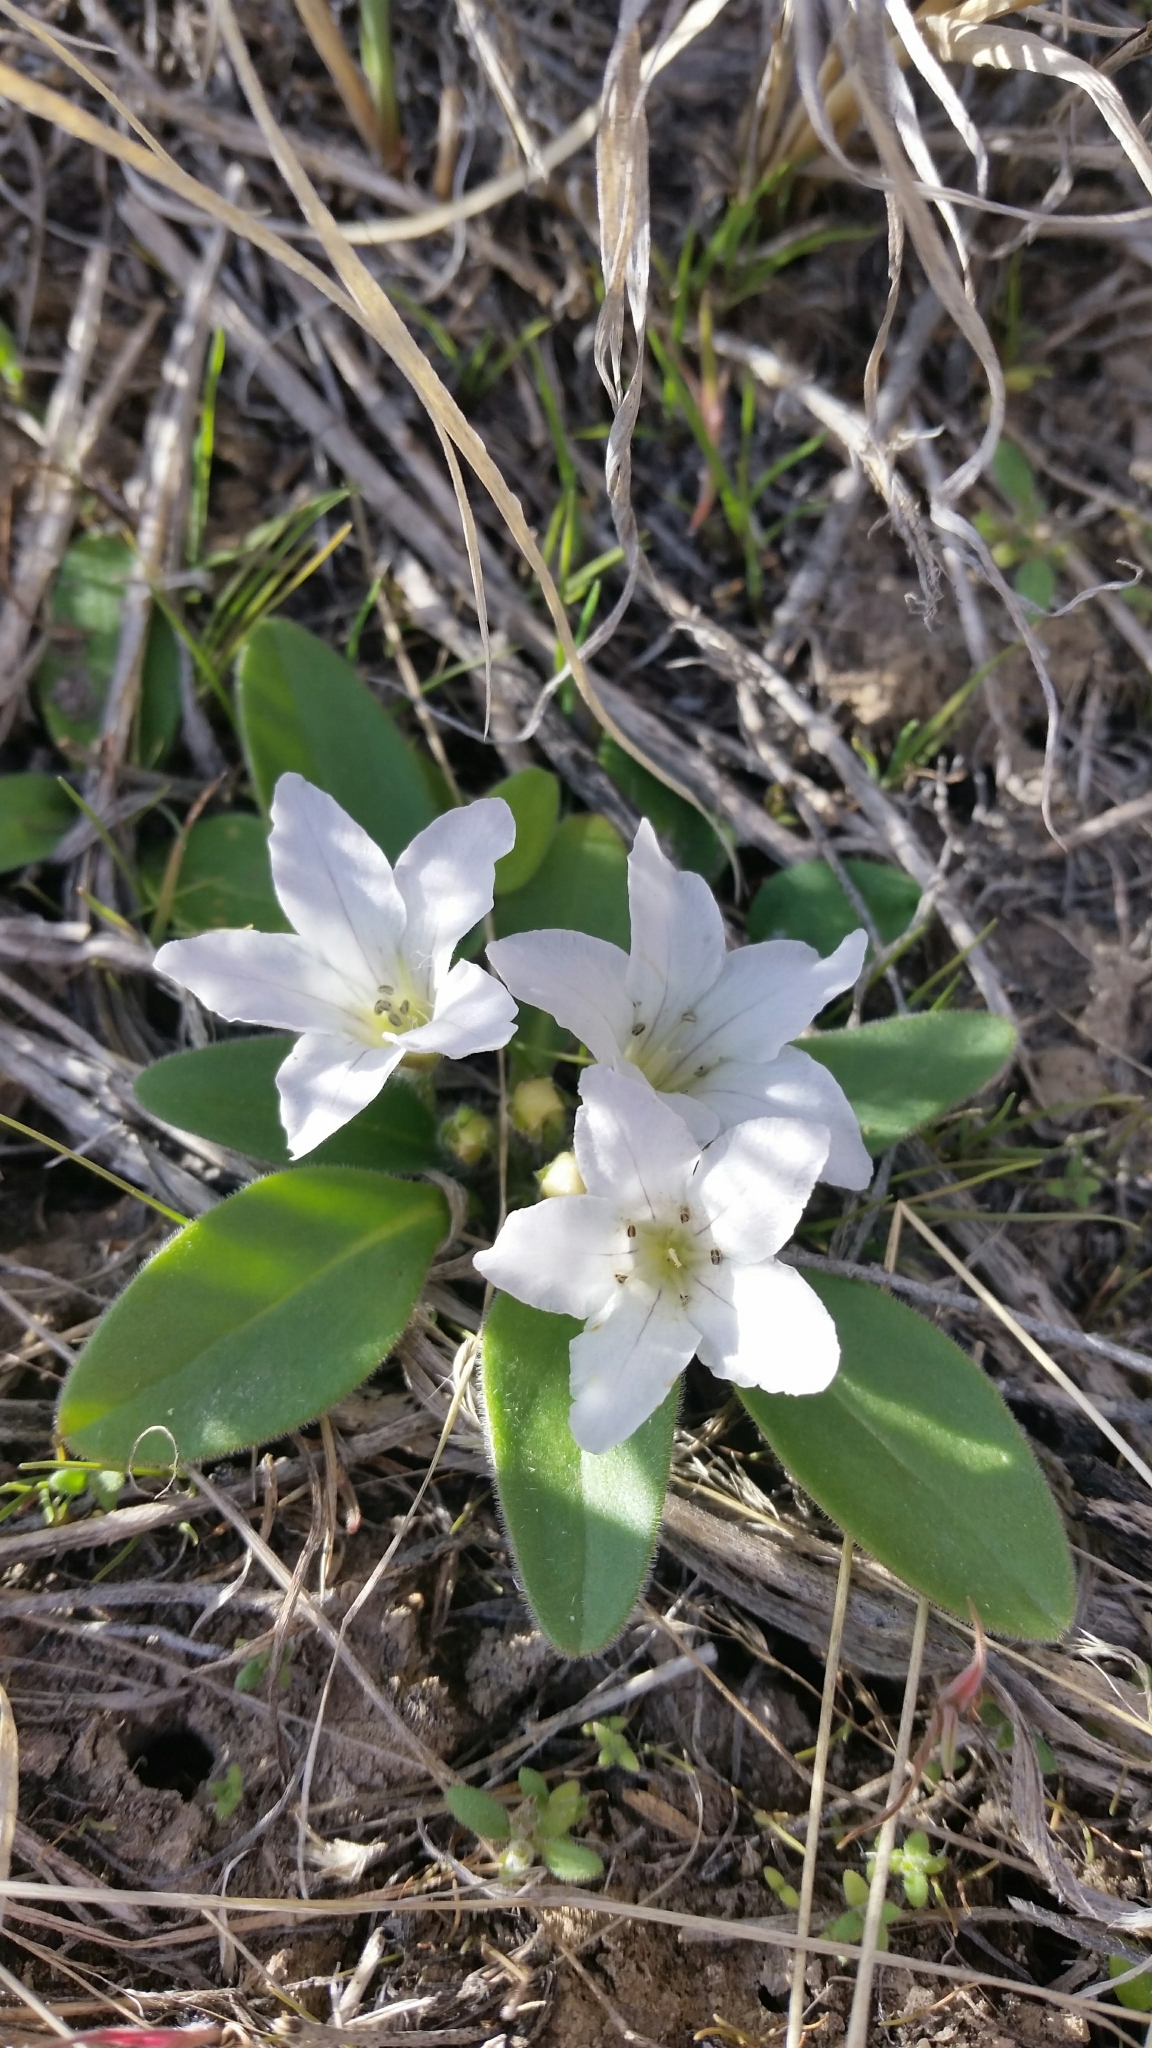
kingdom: Plantae
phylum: Tracheophyta
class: Magnoliopsida
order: Boraginales
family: Hydrophyllaceae
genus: Hesperochiron
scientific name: Hesperochiron californicus
